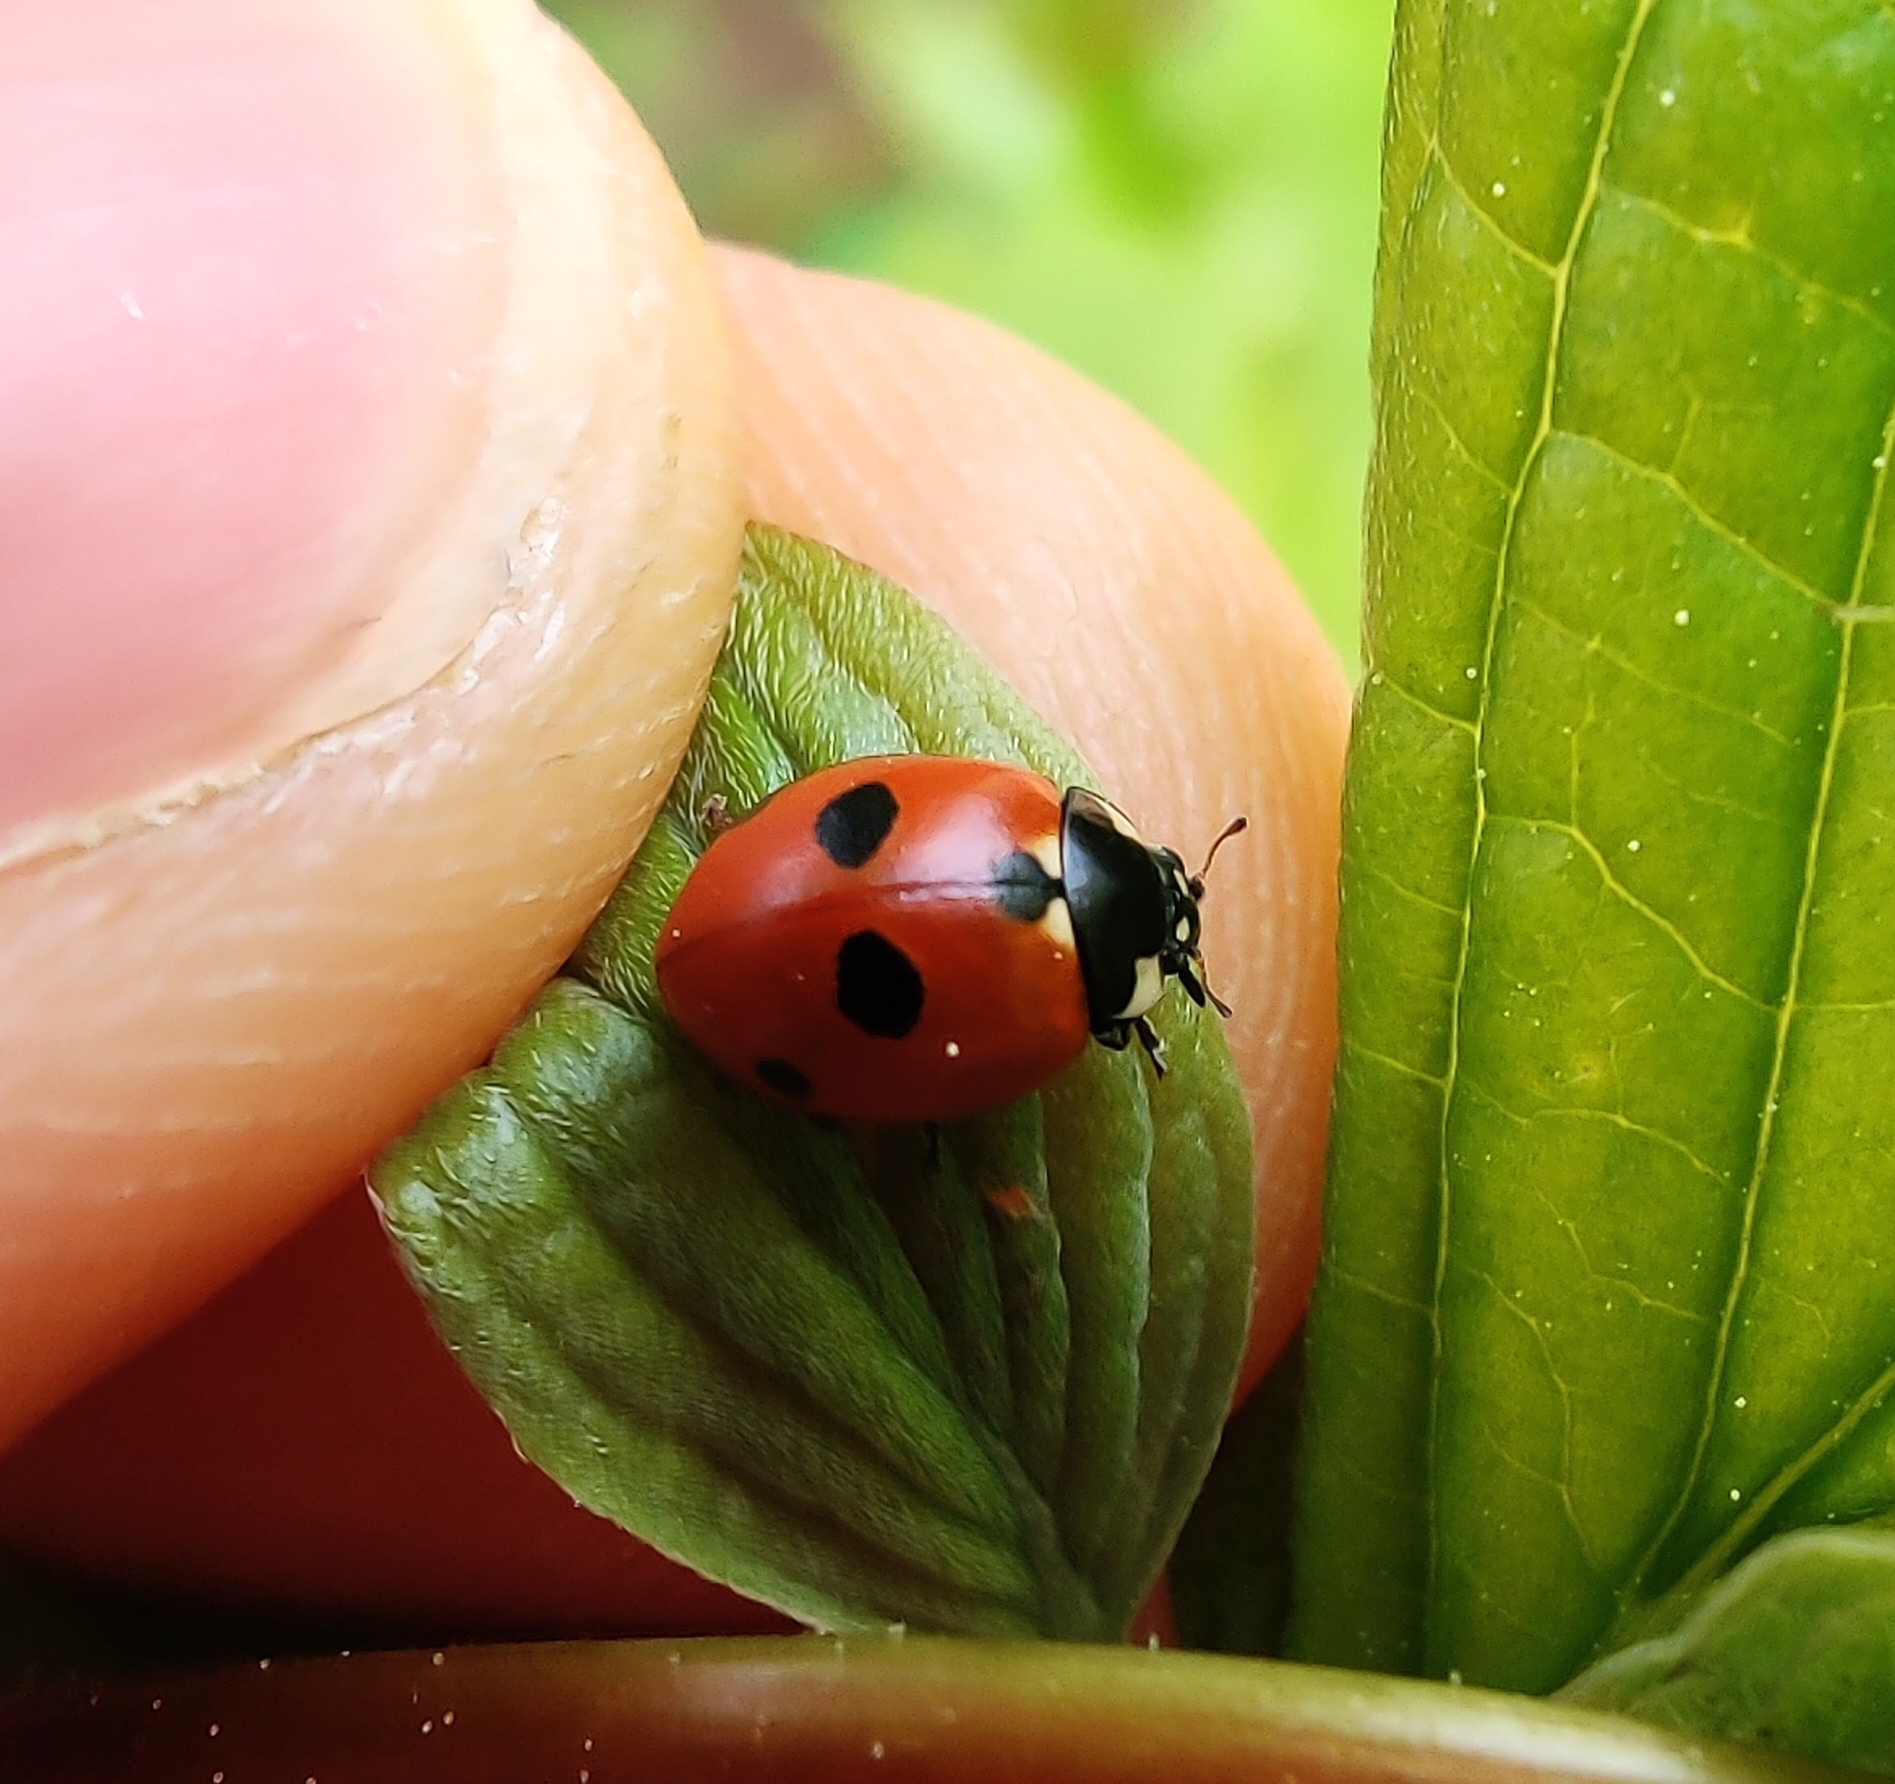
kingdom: Animalia
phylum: Arthropoda
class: Insecta
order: Coleoptera
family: Coccinellidae
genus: Coccinella
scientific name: Coccinella quinquepunctata
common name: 5-spot ladybird
